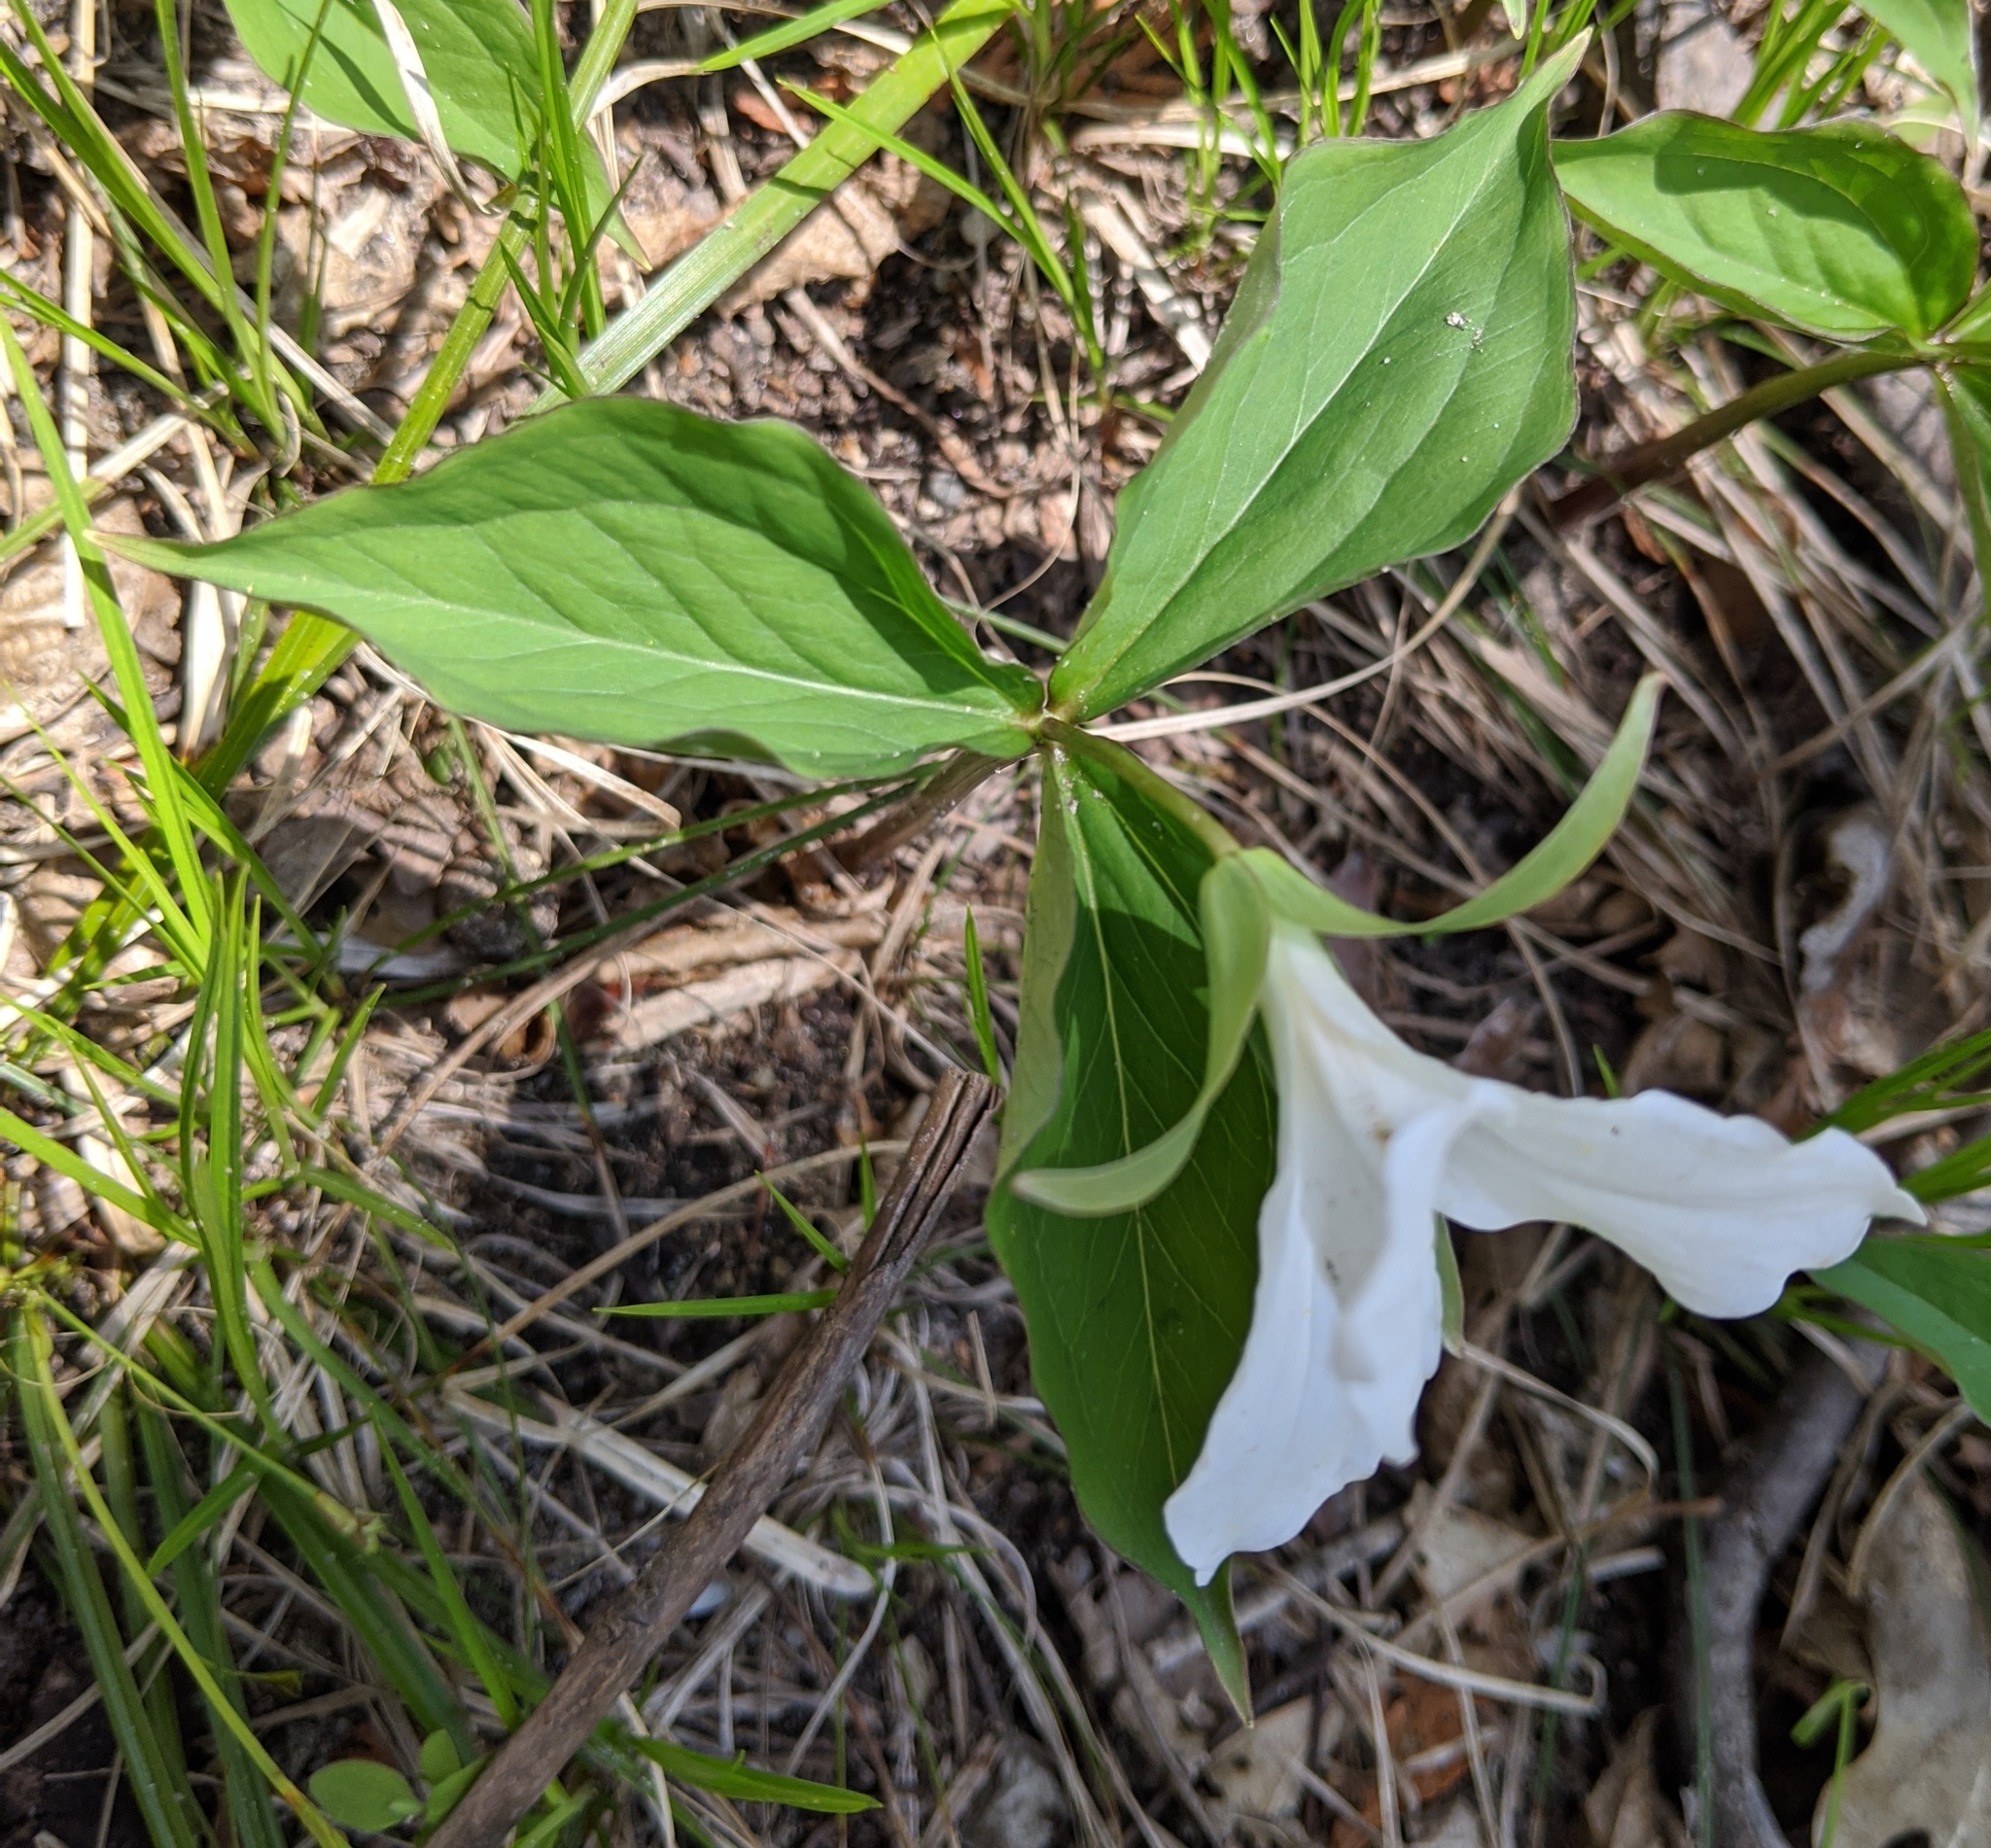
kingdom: Plantae
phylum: Tracheophyta
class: Liliopsida
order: Liliales
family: Melanthiaceae
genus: Trillium
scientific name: Trillium grandiflorum
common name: Great white trillium
